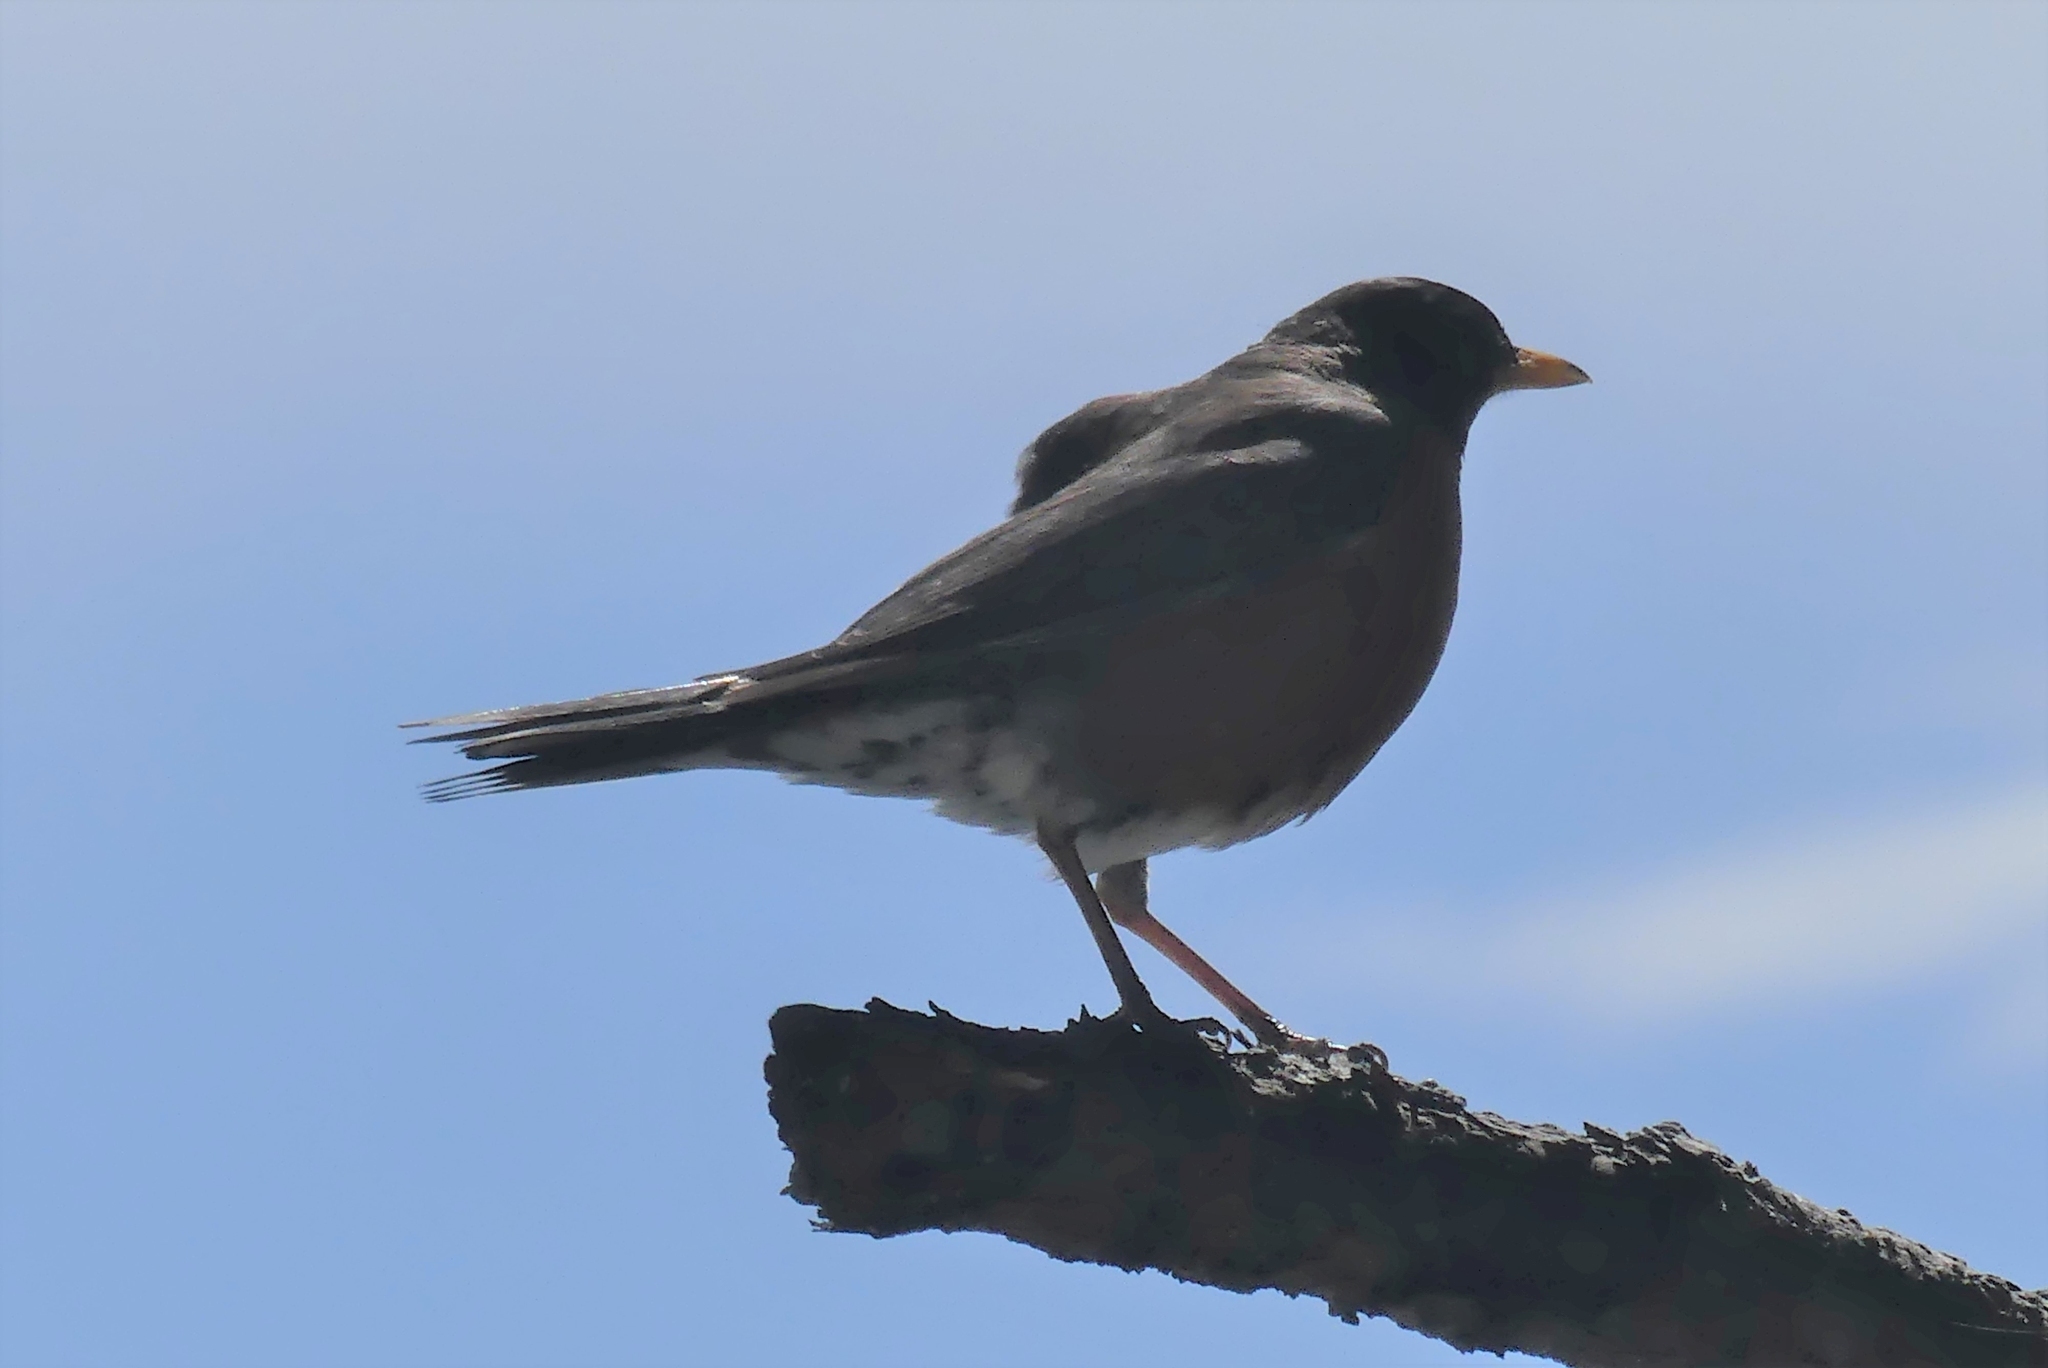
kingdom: Animalia
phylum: Chordata
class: Aves
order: Passeriformes
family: Turdidae
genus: Turdus
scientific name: Turdus migratorius
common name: American robin
